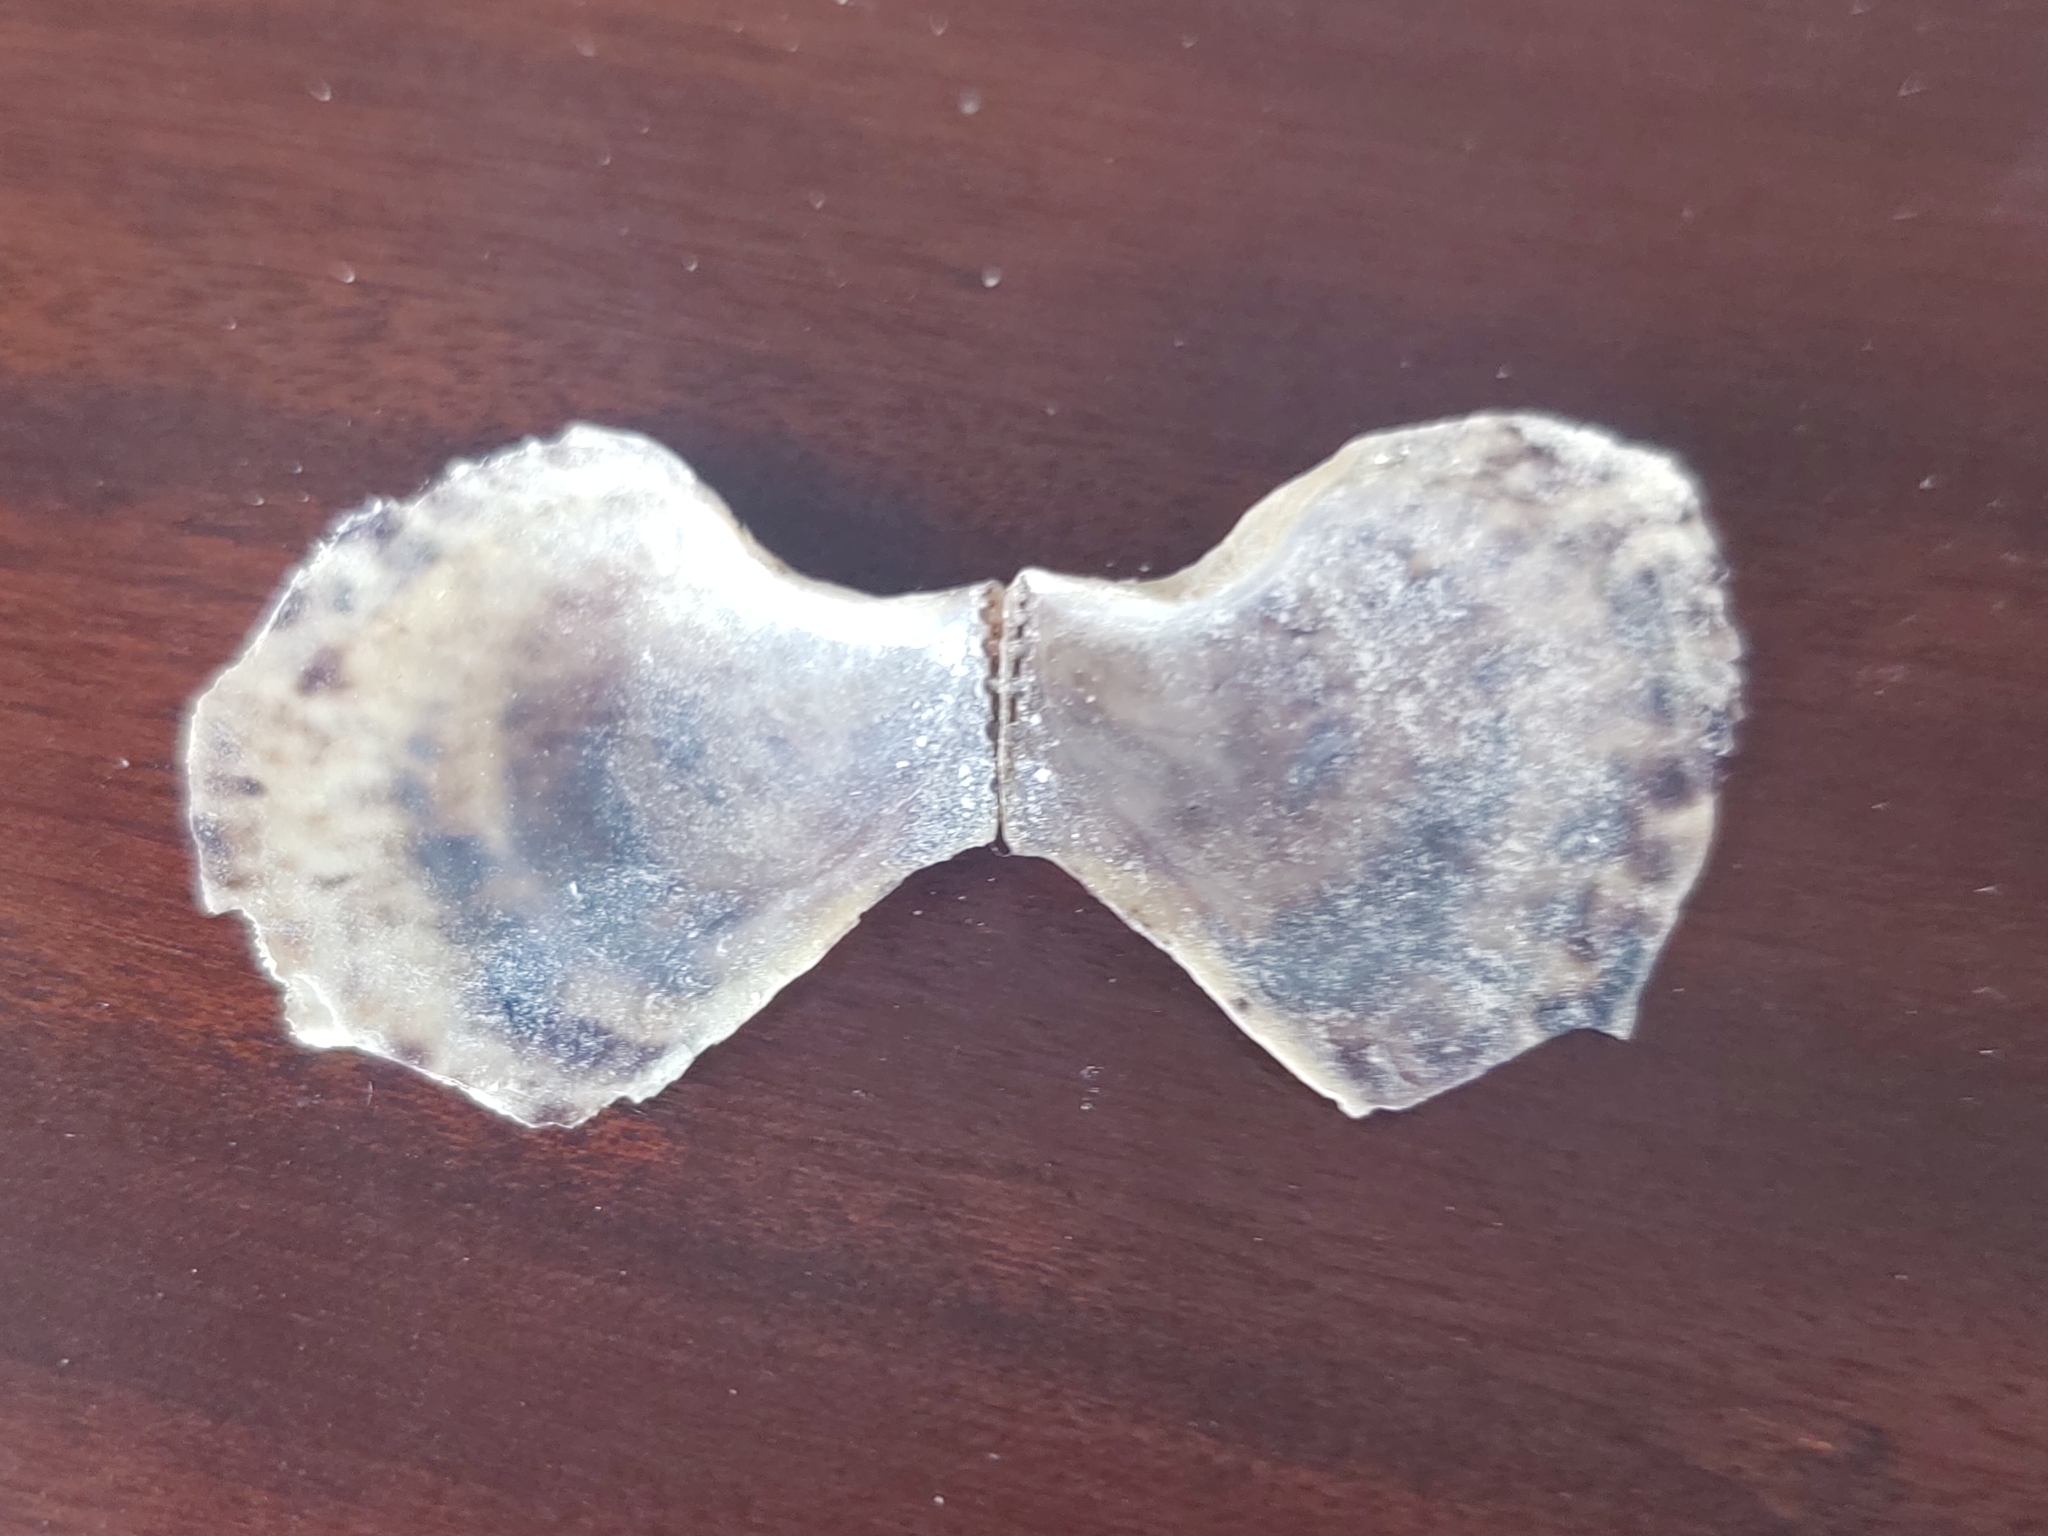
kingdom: Animalia
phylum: Mollusca
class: Bivalvia
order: Ostreida
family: Isognomonidae
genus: Isognomon
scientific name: Isognomon alatus
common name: Flat tree-oyster
